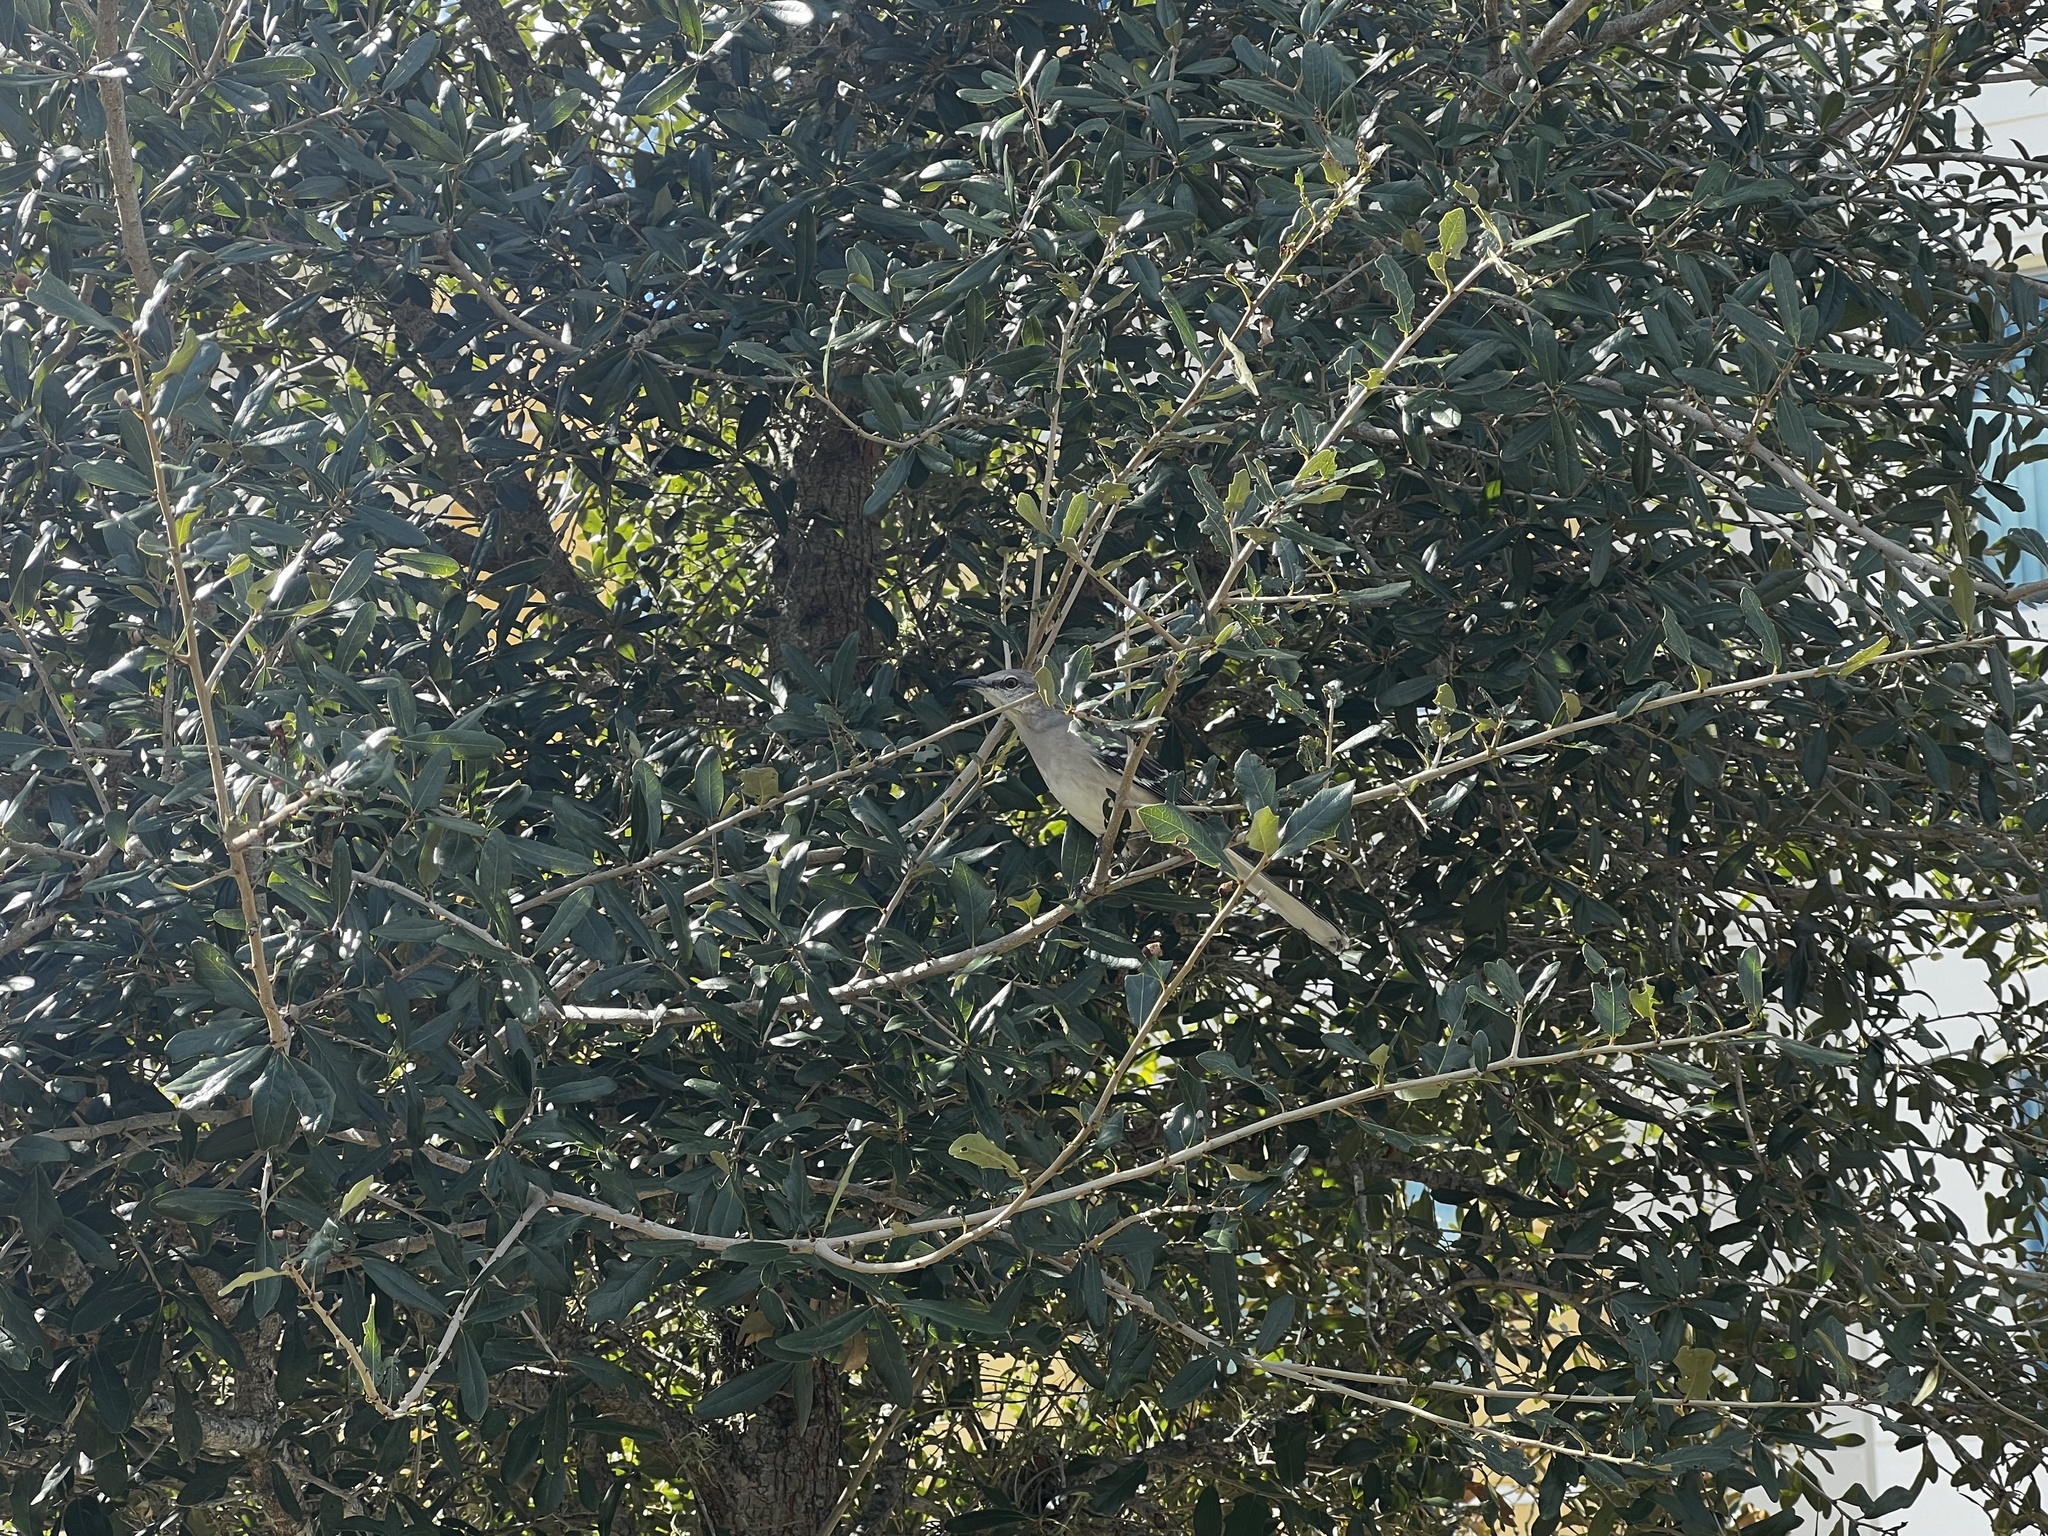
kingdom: Animalia
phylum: Chordata
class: Aves
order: Passeriformes
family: Mimidae
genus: Mimus
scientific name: Mimus polyglottos
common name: Northern mockingbird
